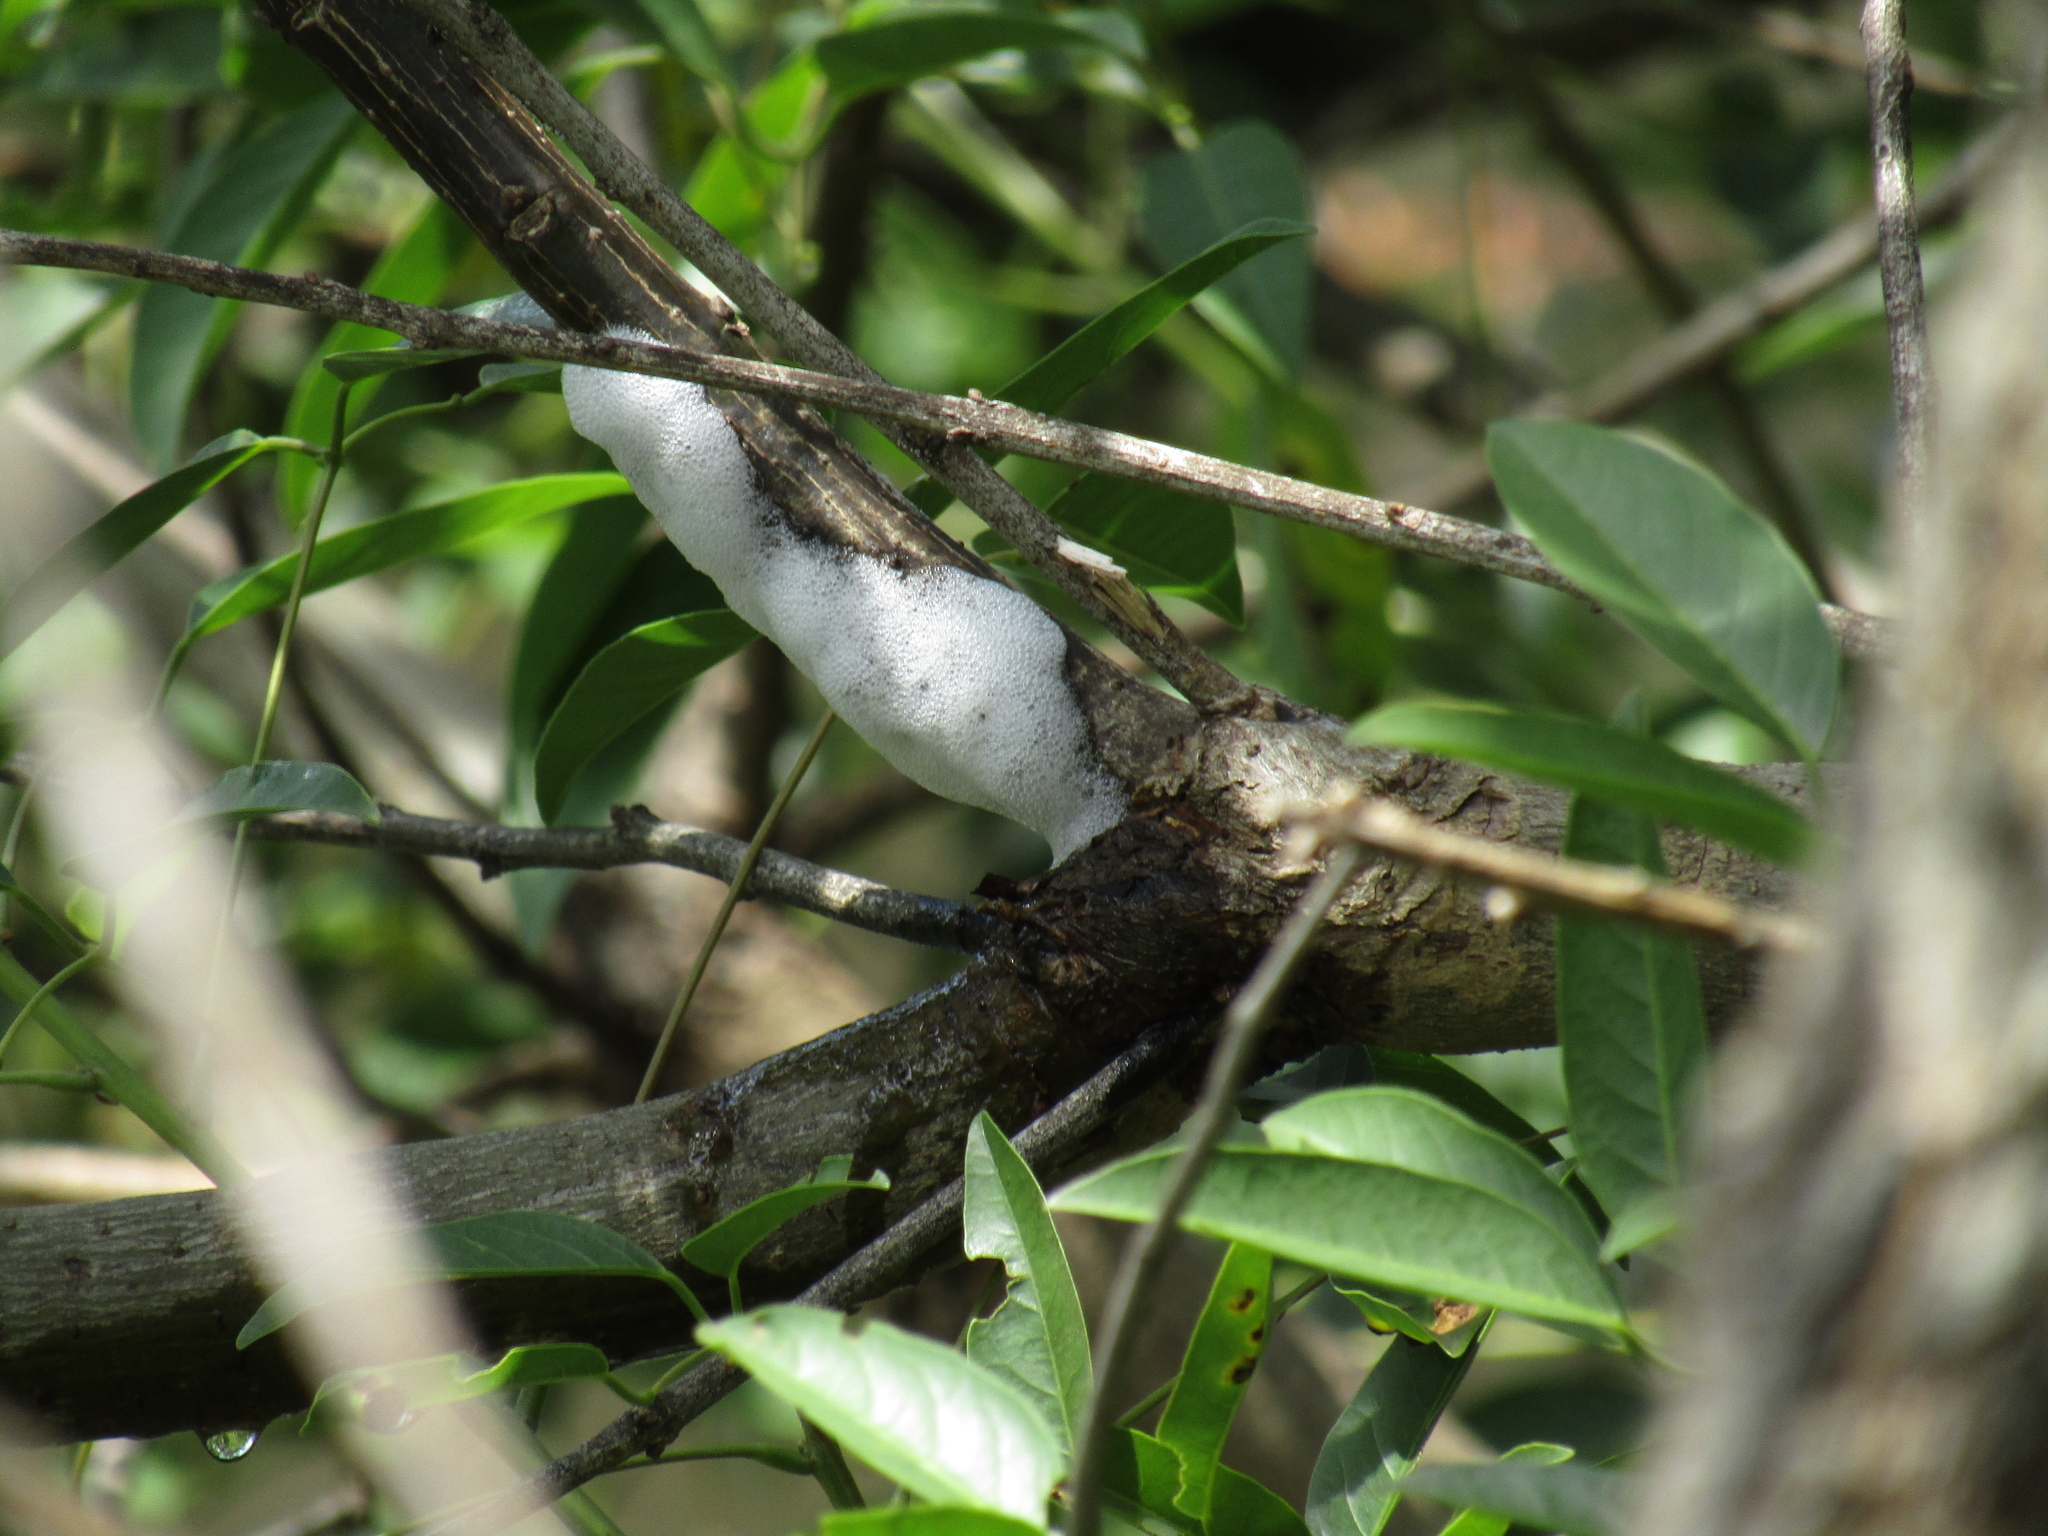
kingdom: Animalia
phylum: Arthropoda
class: Insecta
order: Hemiptera
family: Aphrophoridae
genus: Cephisus
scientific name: Cephisus siccifolius
